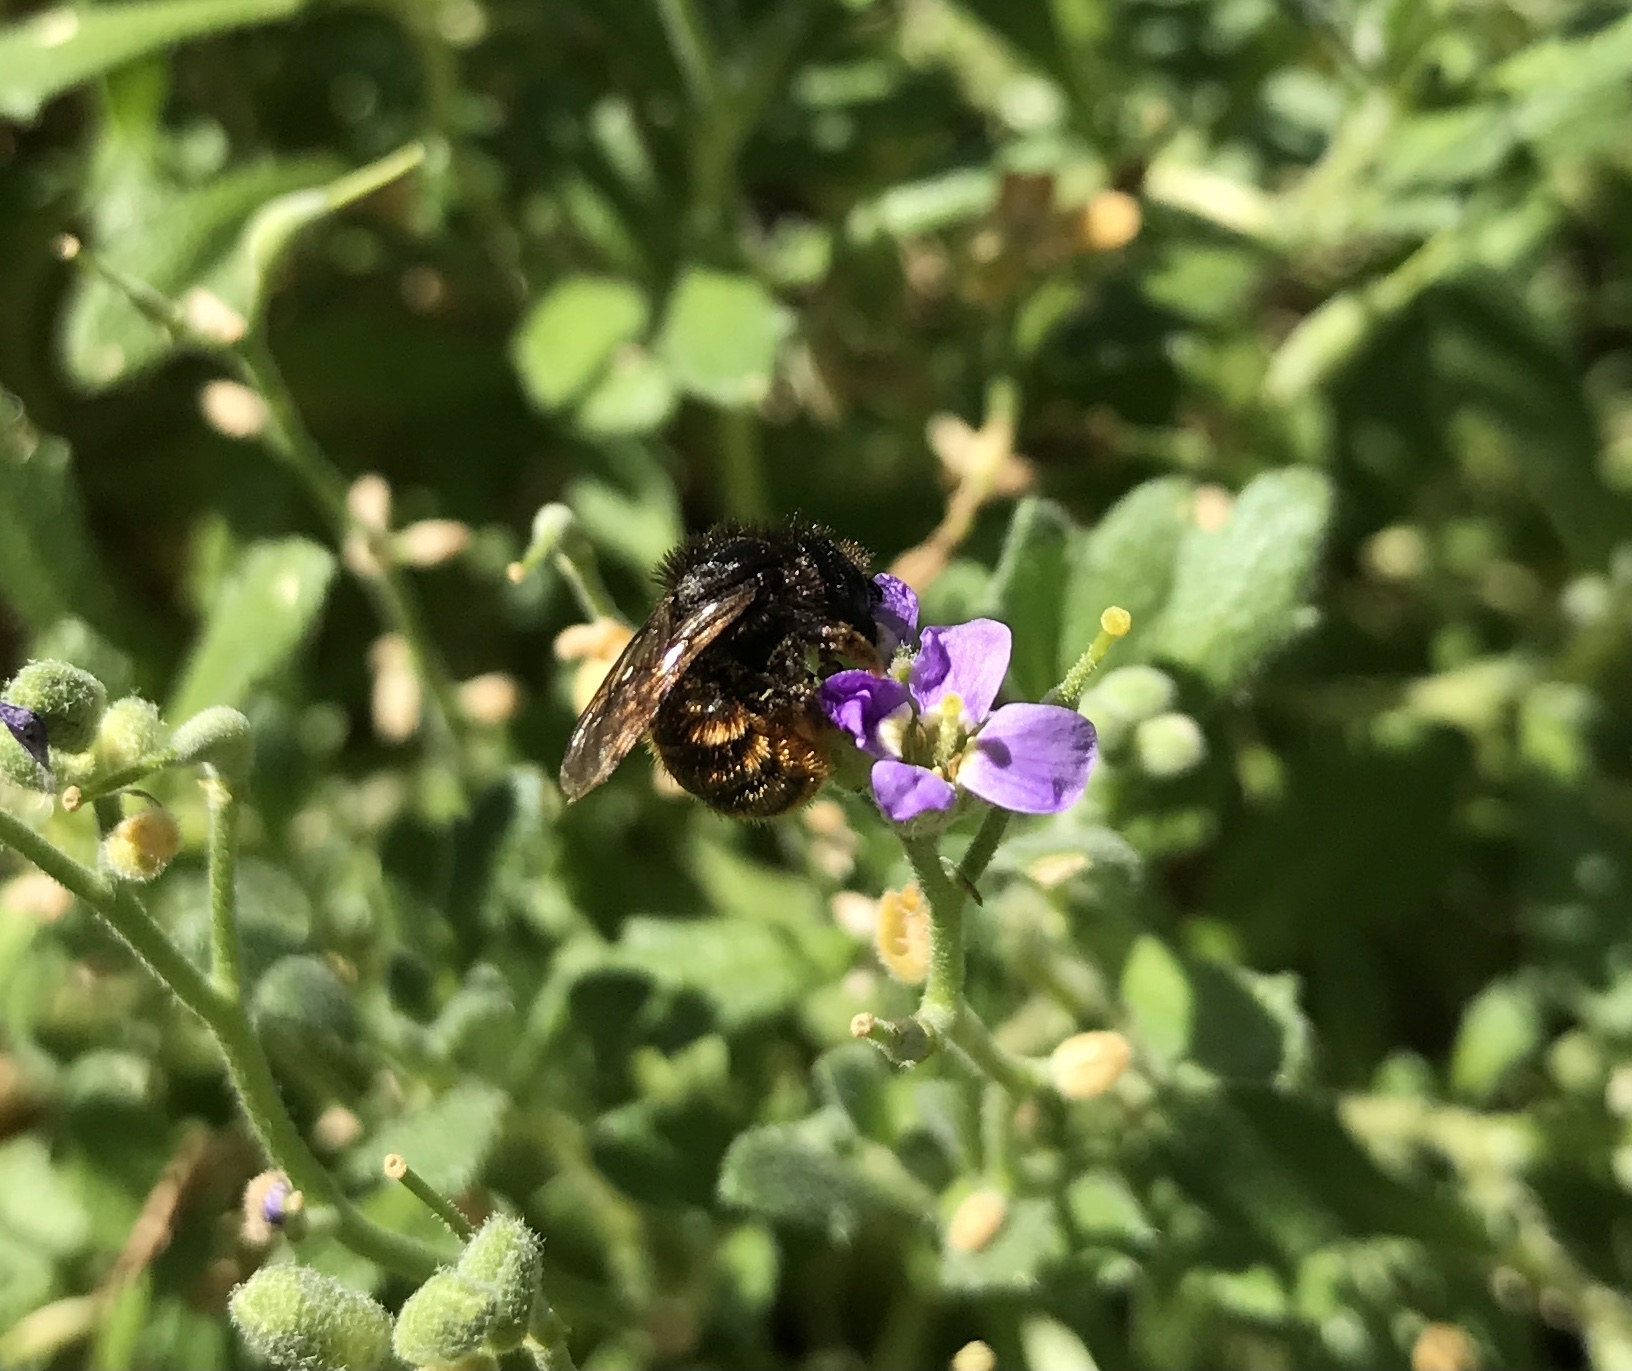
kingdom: Animalia
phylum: Arthropoda
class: Insecta
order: Hymenoptera
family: Megachilidae
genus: Osmia
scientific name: Osmia bicolor
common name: Red-tailed mason bee
